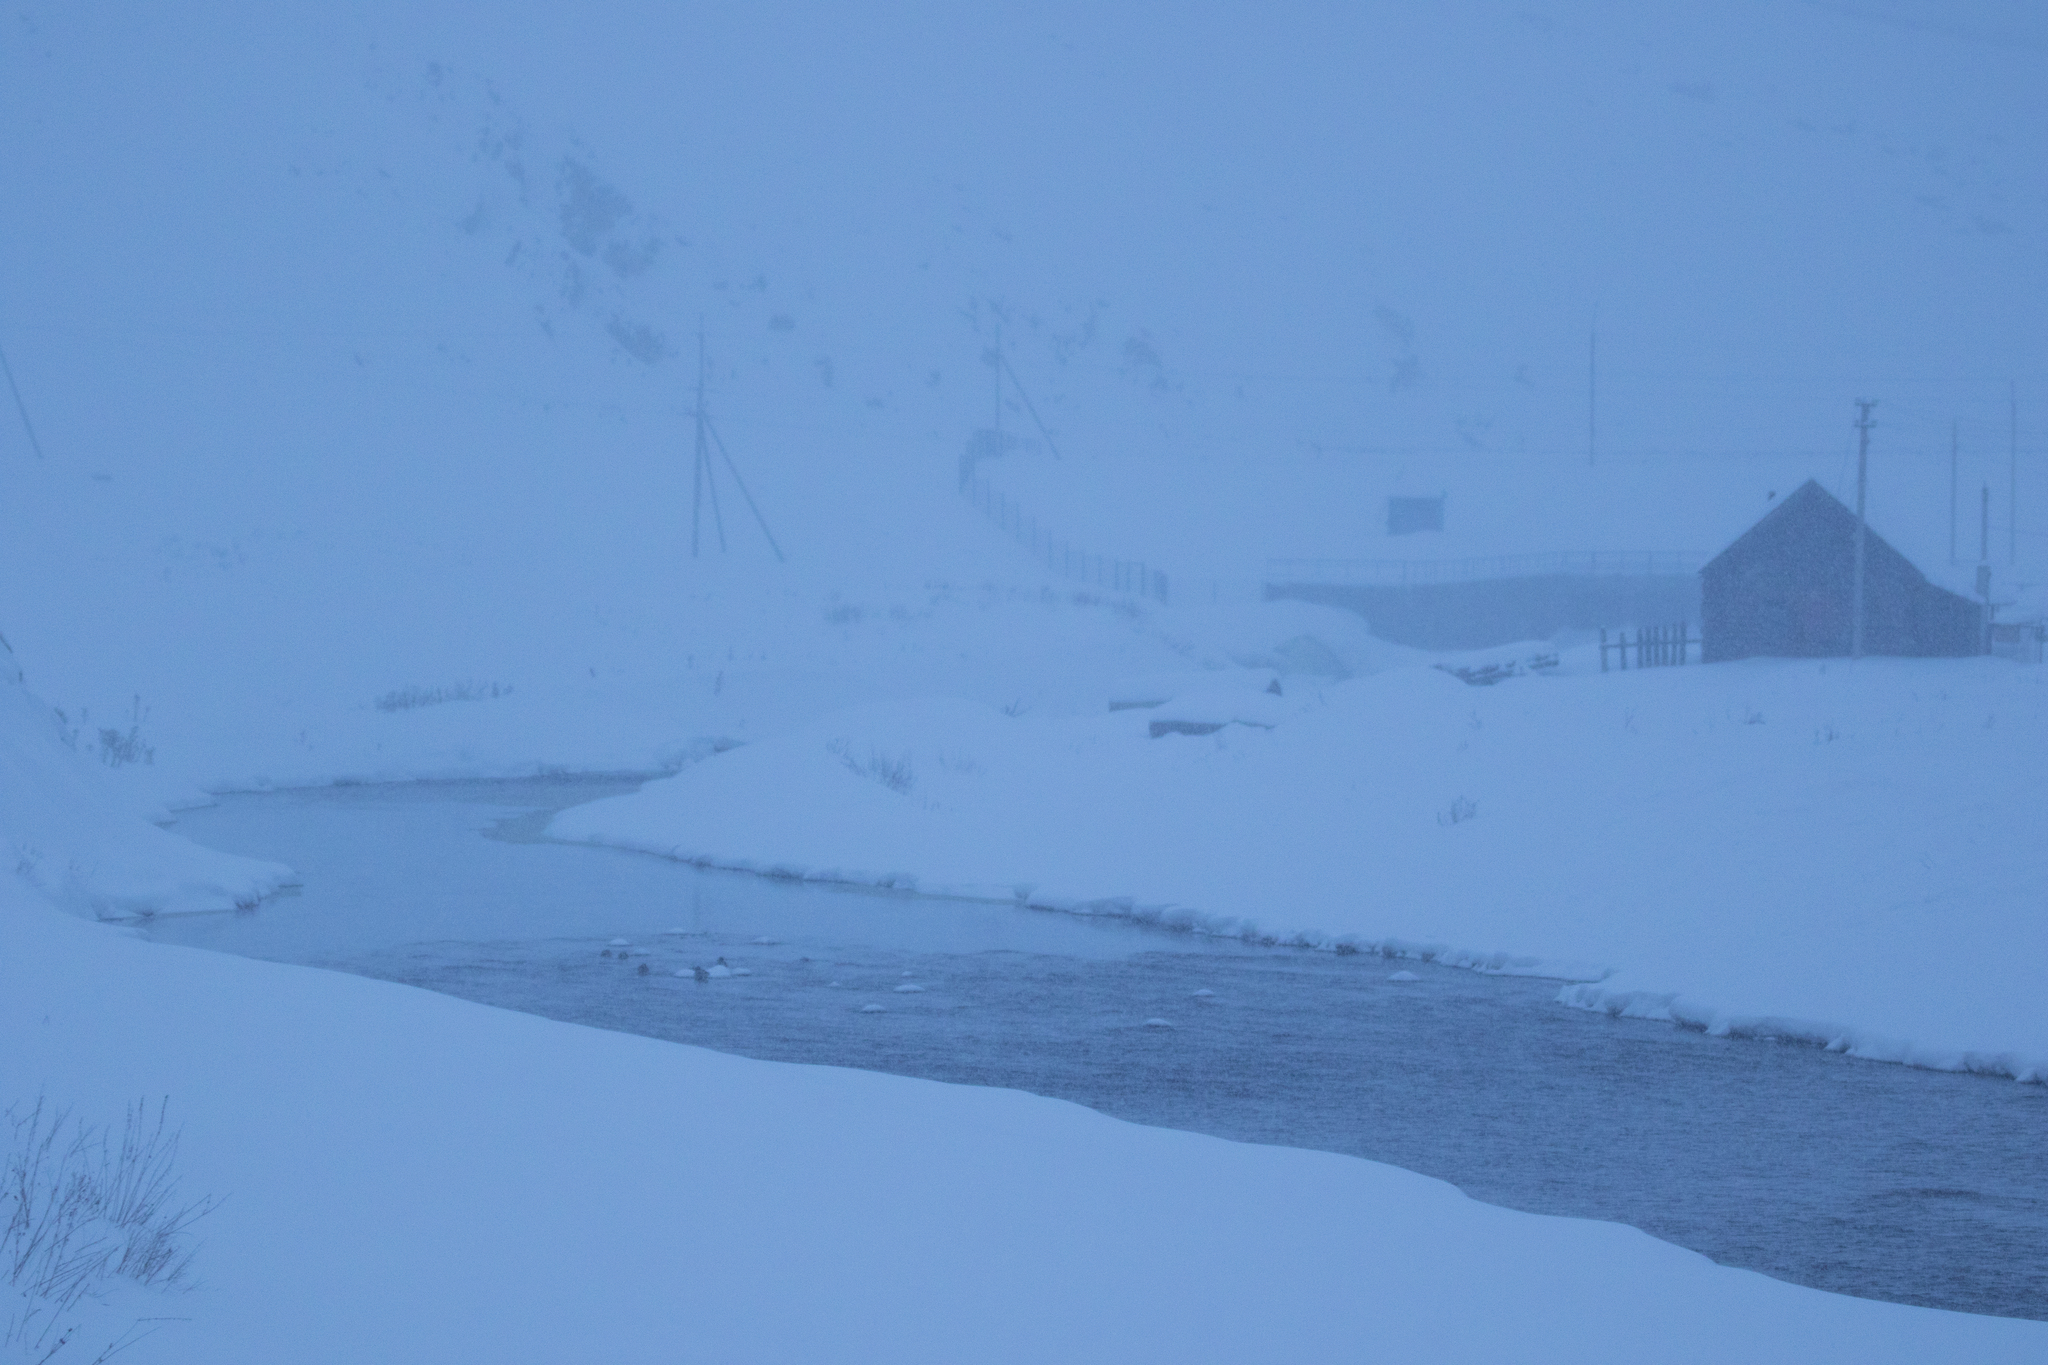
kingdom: Animalia
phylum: Chordata
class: Aves
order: Anseriformes
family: Anatidae
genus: Anas
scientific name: Anas platyrhynchos
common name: Mallard
